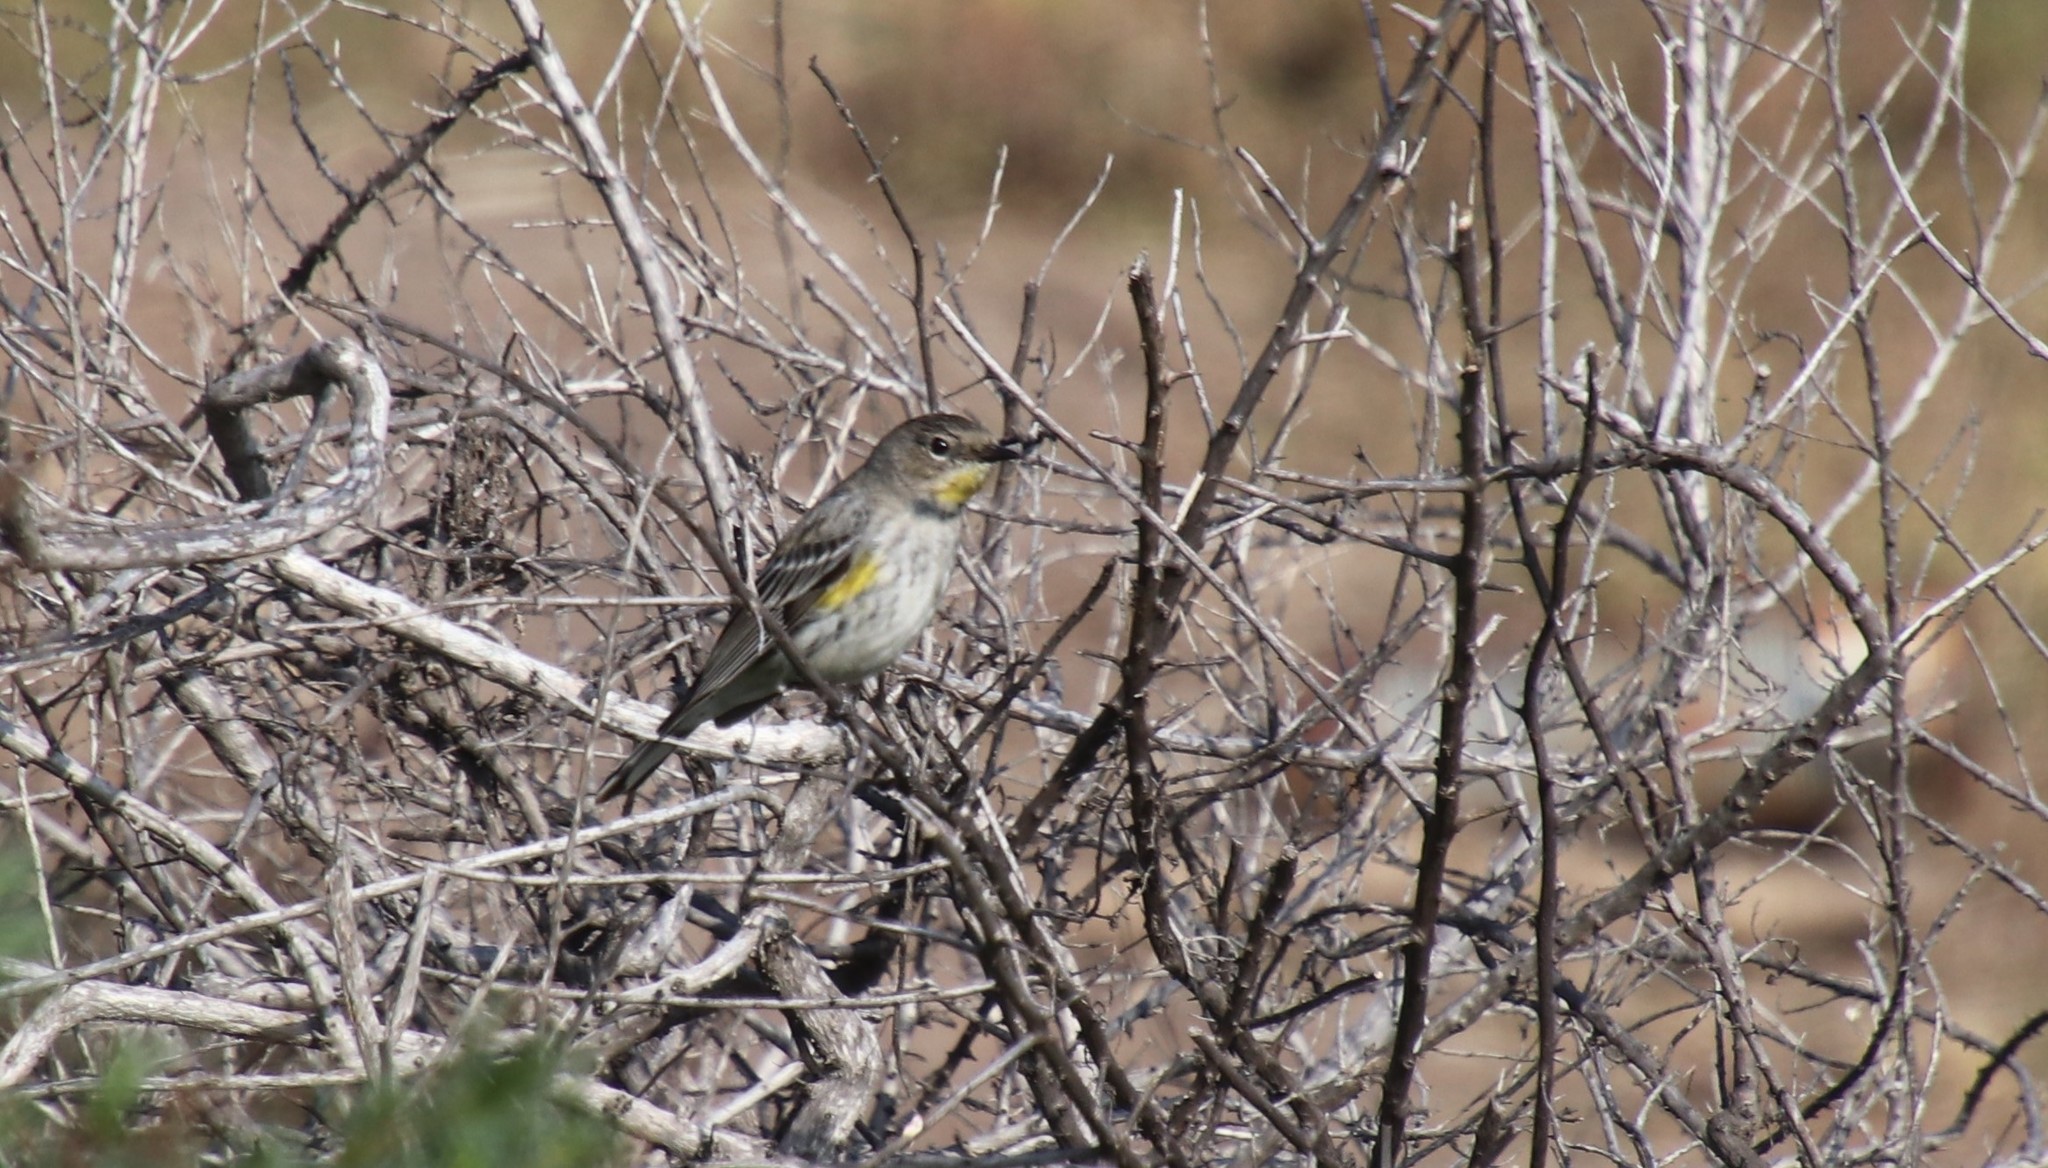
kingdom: Animalia
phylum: Chordata
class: Aves
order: Passeriformes
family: Parulidae
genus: Setophaga
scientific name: Setophaga coronata
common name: Myrtle warbler
